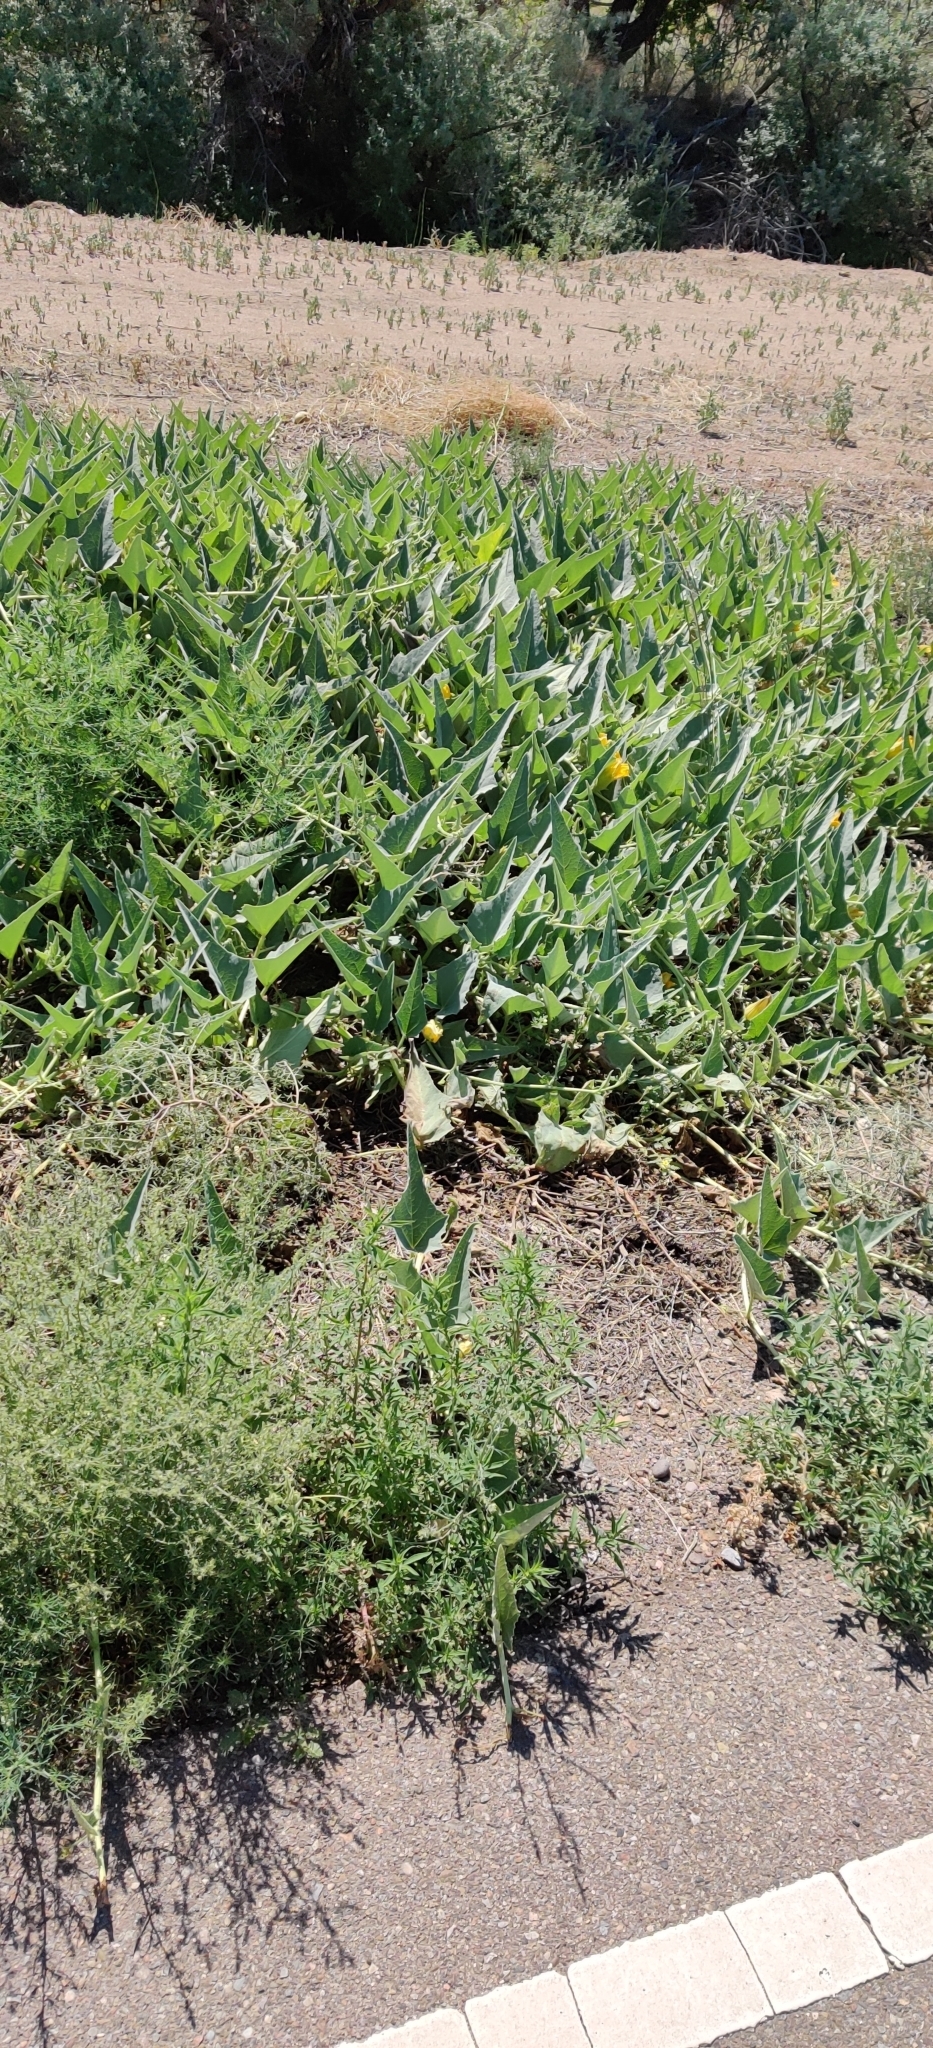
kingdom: Plantae
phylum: Tracheophyta
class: Magnoliopsida
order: Cucurbitales
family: Cucurbitaceae
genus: Cucurbita
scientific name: Cucurbita foetidissima
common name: Buffalo gourd
